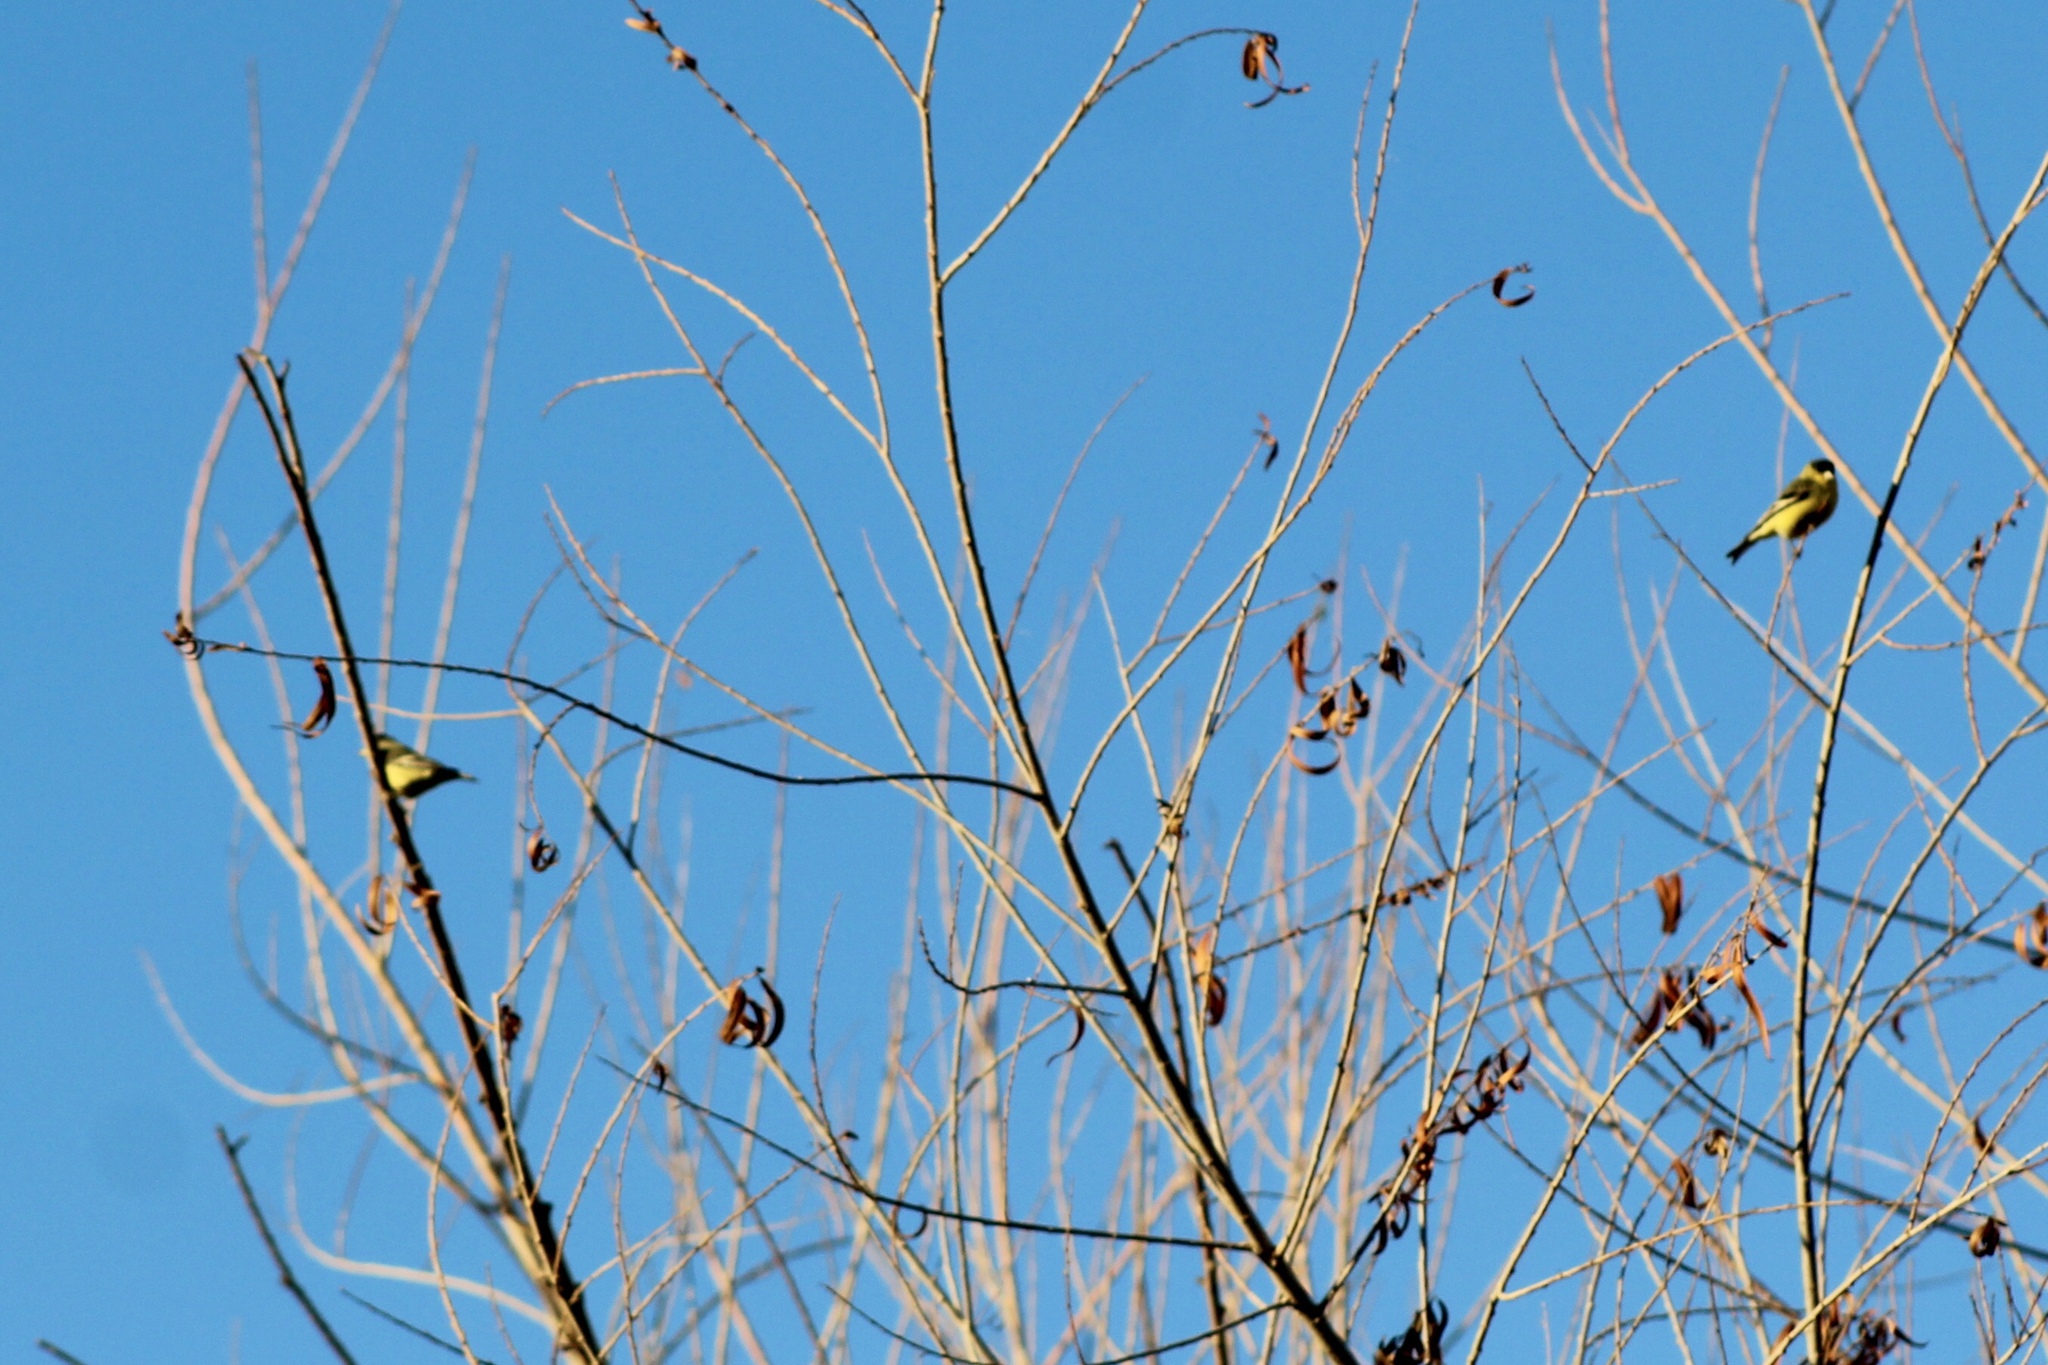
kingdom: Animalia
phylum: Chordata
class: Aves
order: Passeriformes
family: Fringillidae
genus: Spinus
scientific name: Spinus psaltria
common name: Lesser goldfinch
